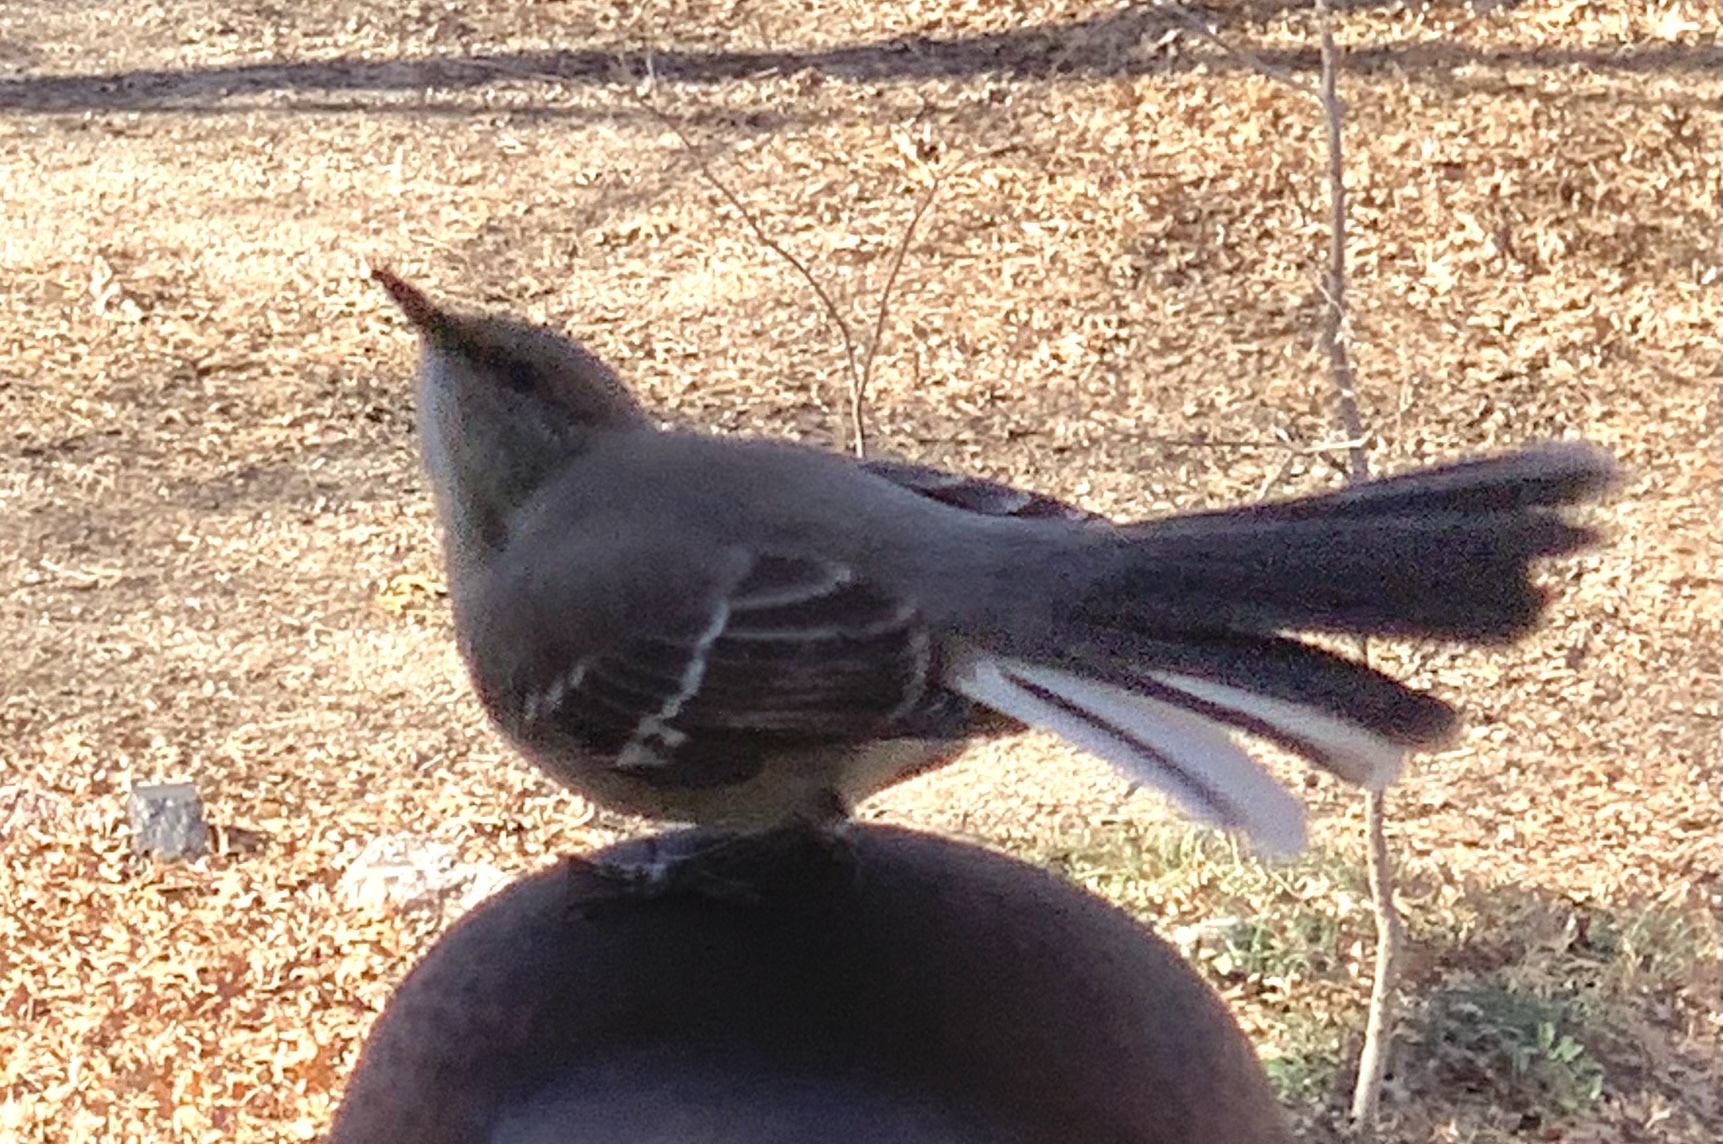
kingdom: Animalia
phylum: Chordata
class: Aves
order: Passeriformes
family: Mimidae
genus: Mimus
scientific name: Mimus polyglottos
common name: Northern mockingbird
